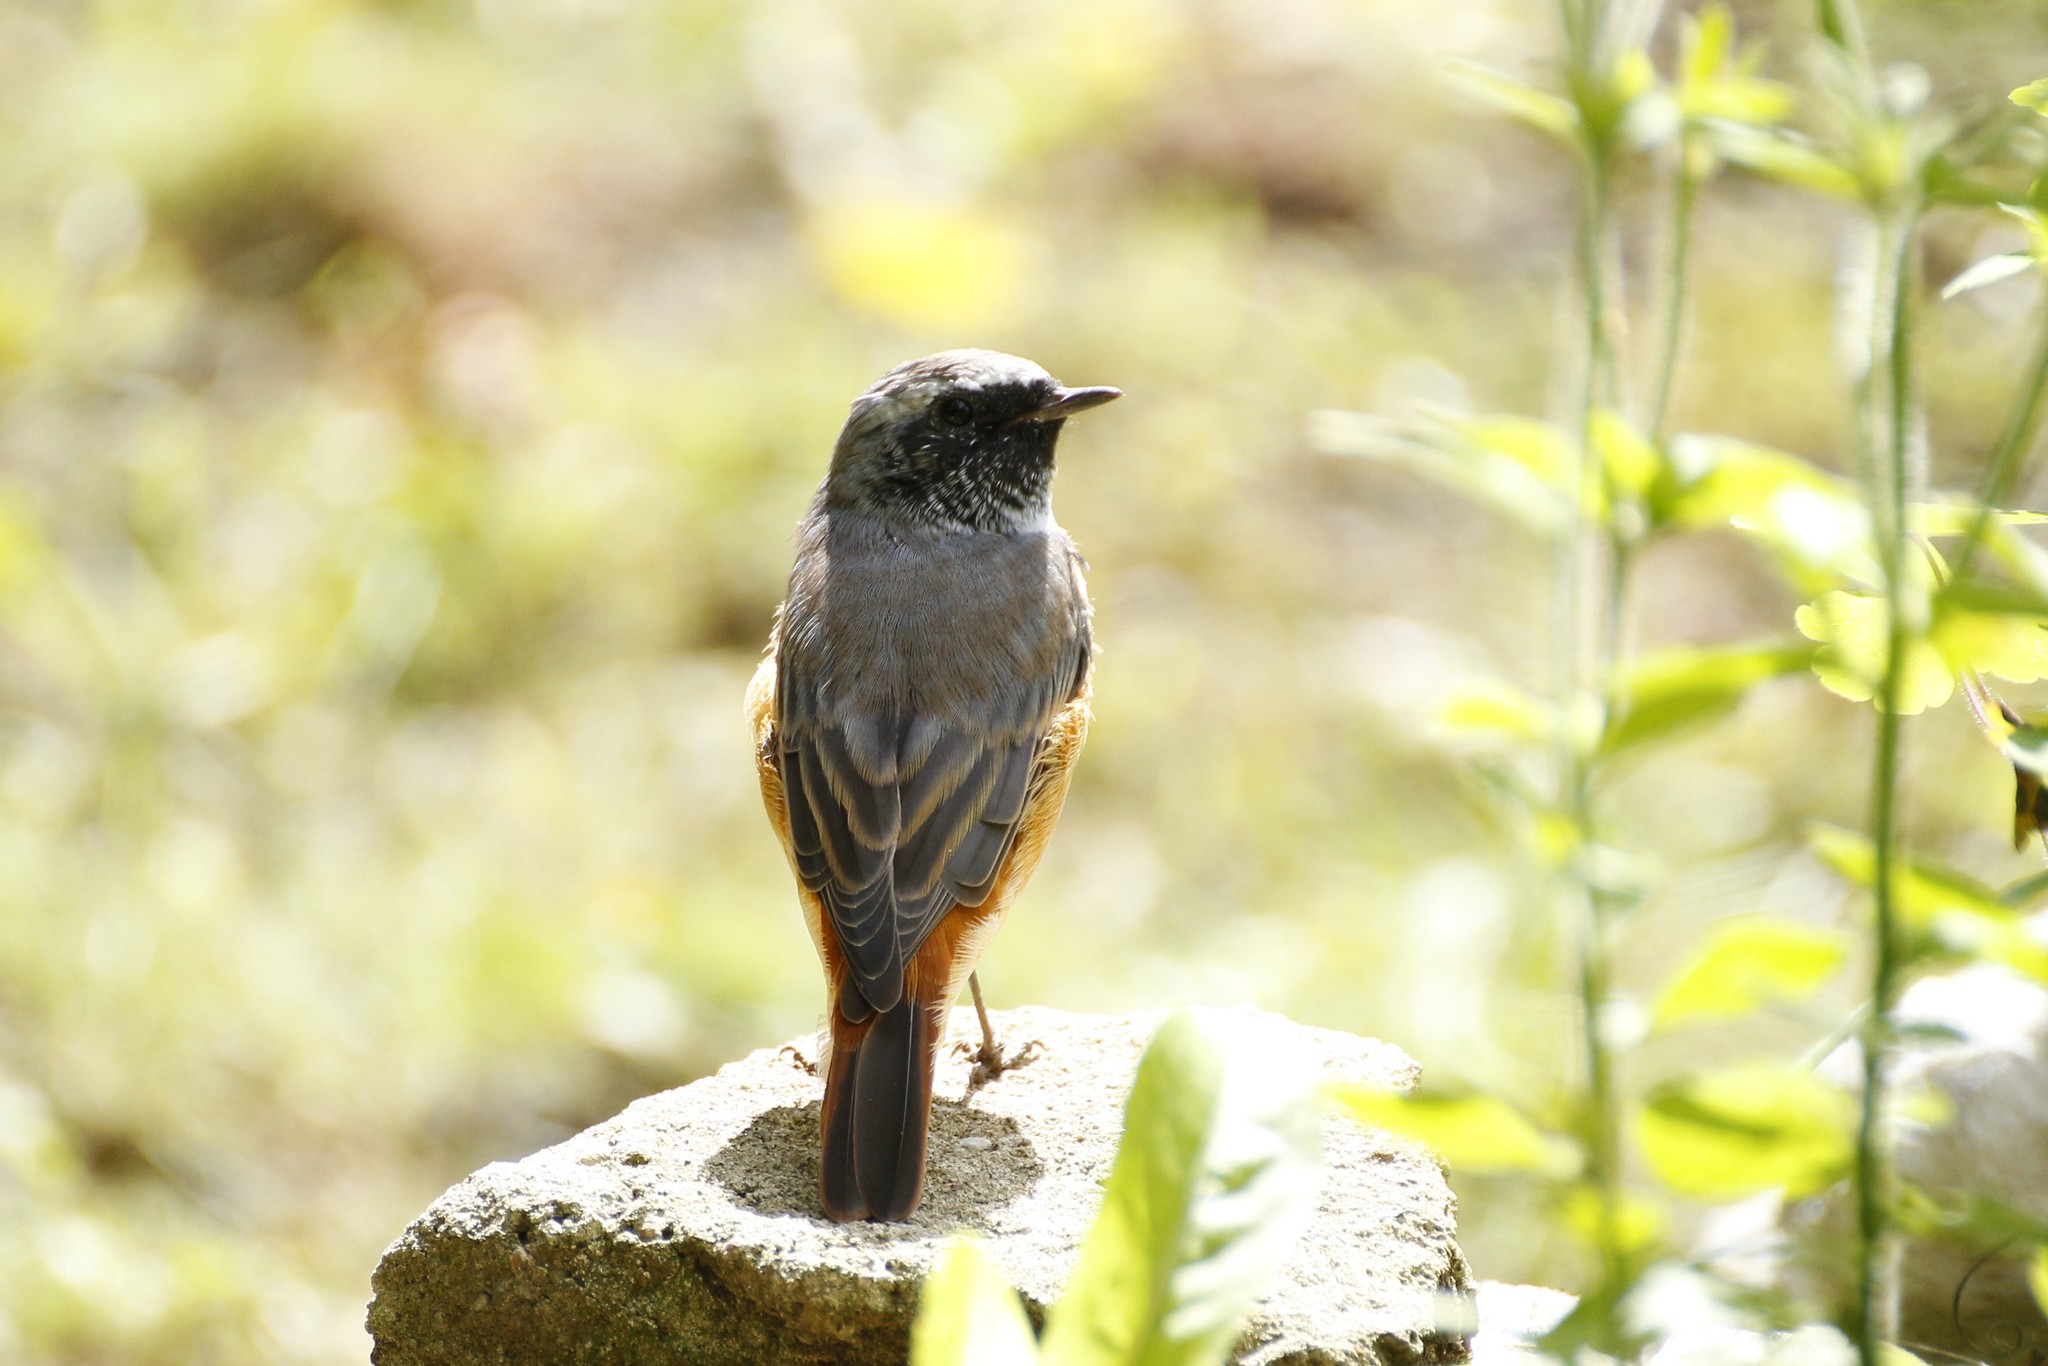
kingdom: Animalia
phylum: Chordata
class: Aves
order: Passeriformes
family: Muscicapidae
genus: Phoenicurus
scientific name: Phoenicurus phoenicurus
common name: Common redstart
